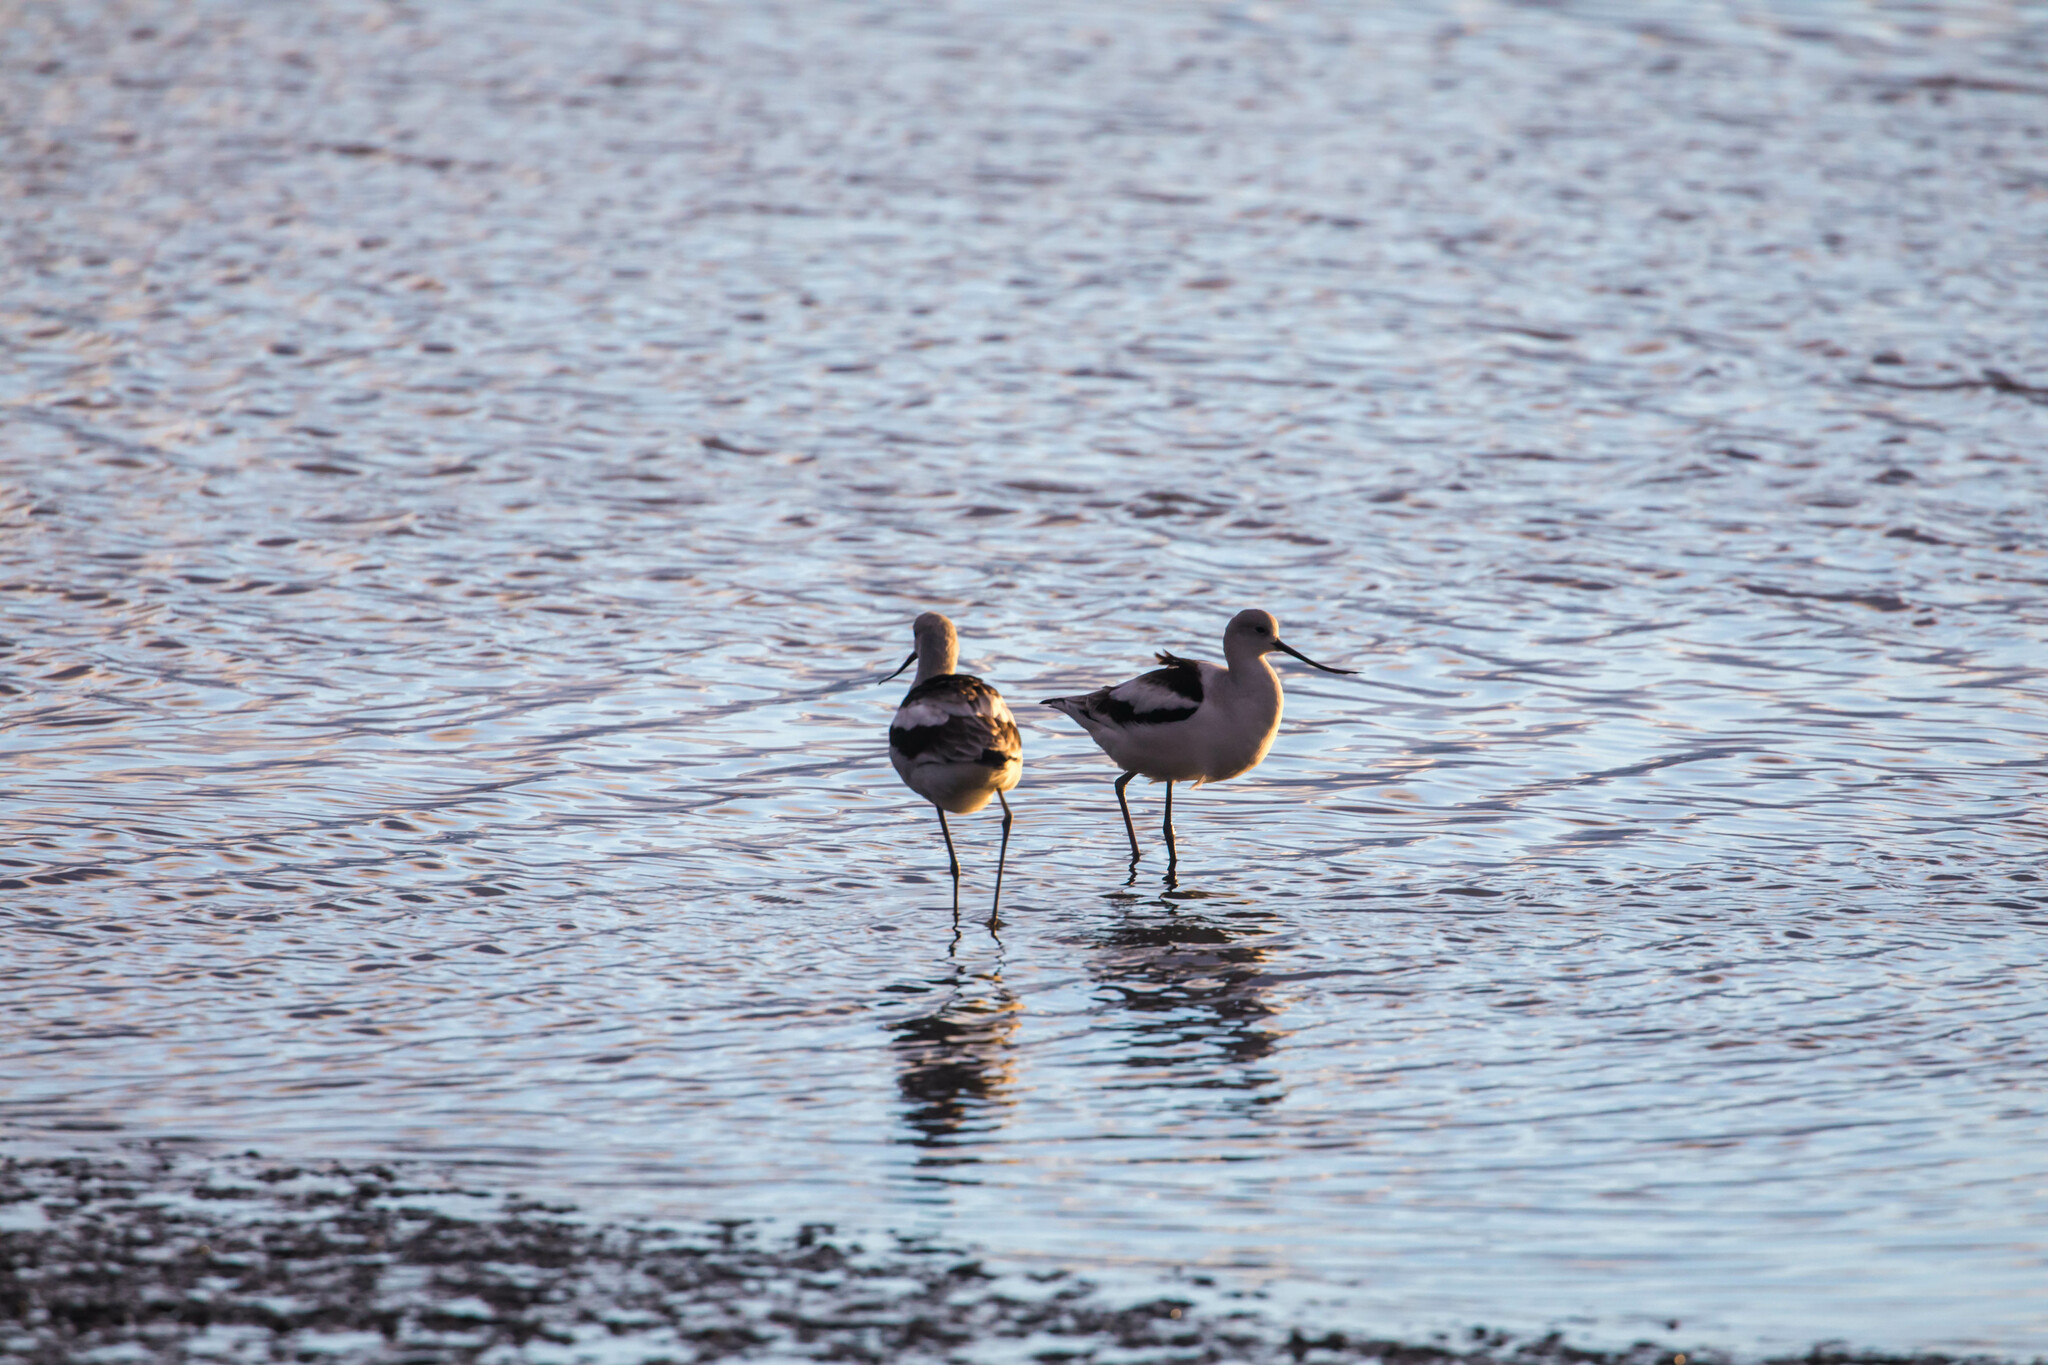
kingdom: Animalia
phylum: Chordata
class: Aves
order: Charadriiformes
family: Recurvirostridae
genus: Recurvirostra
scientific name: Recurvirostra americana
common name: American avocet
